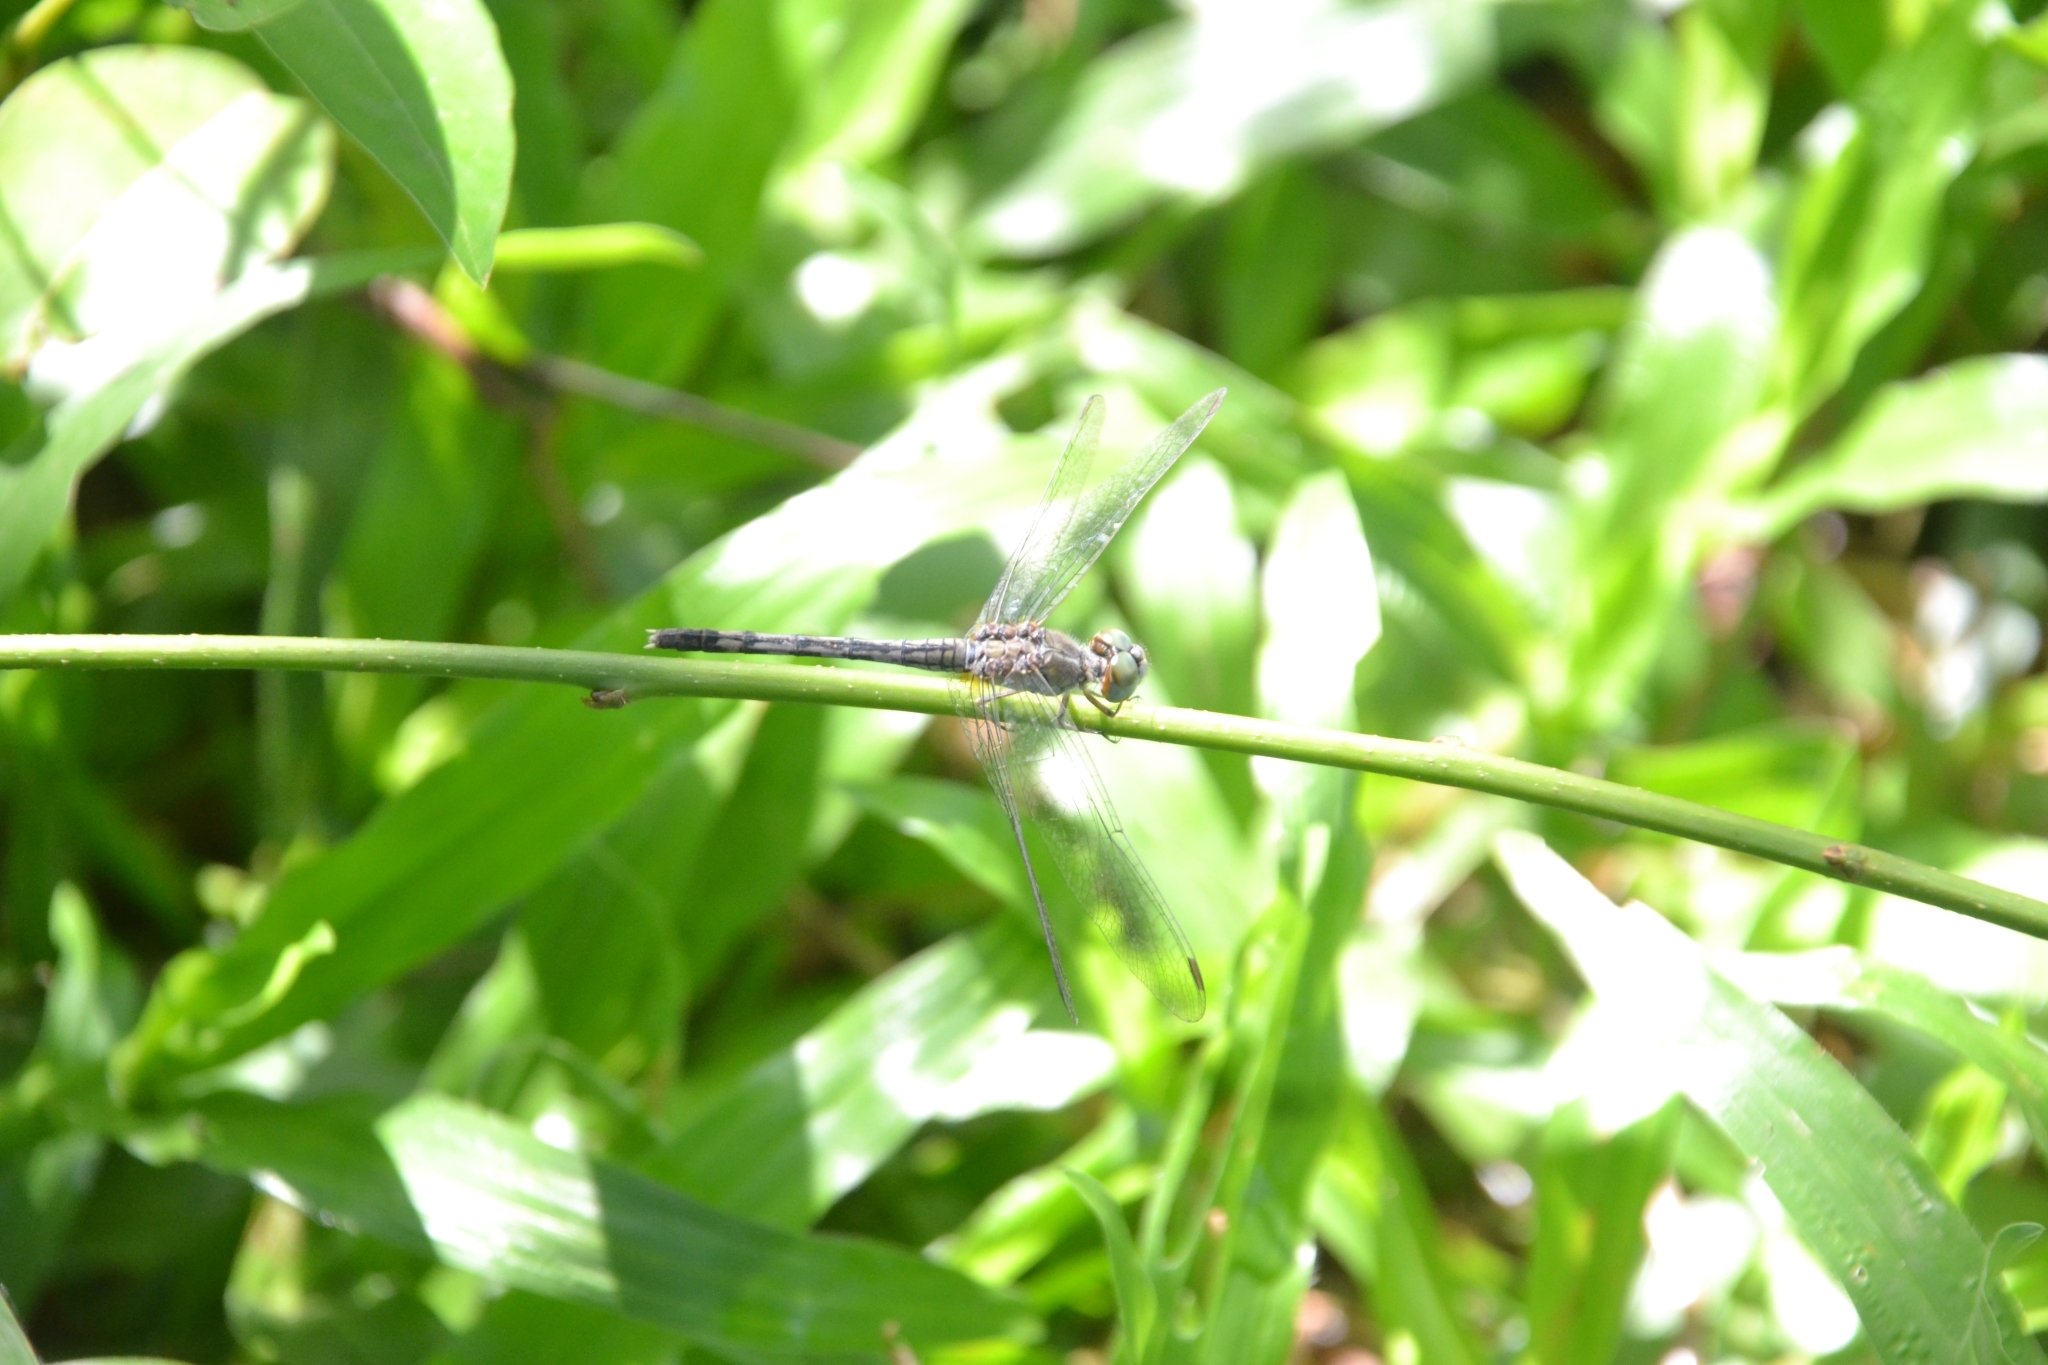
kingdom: Animalia
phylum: Arthropoda
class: Insecta
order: Odonata
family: Libellulidae
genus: Diplacodes
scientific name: Diplacodes trivialis
